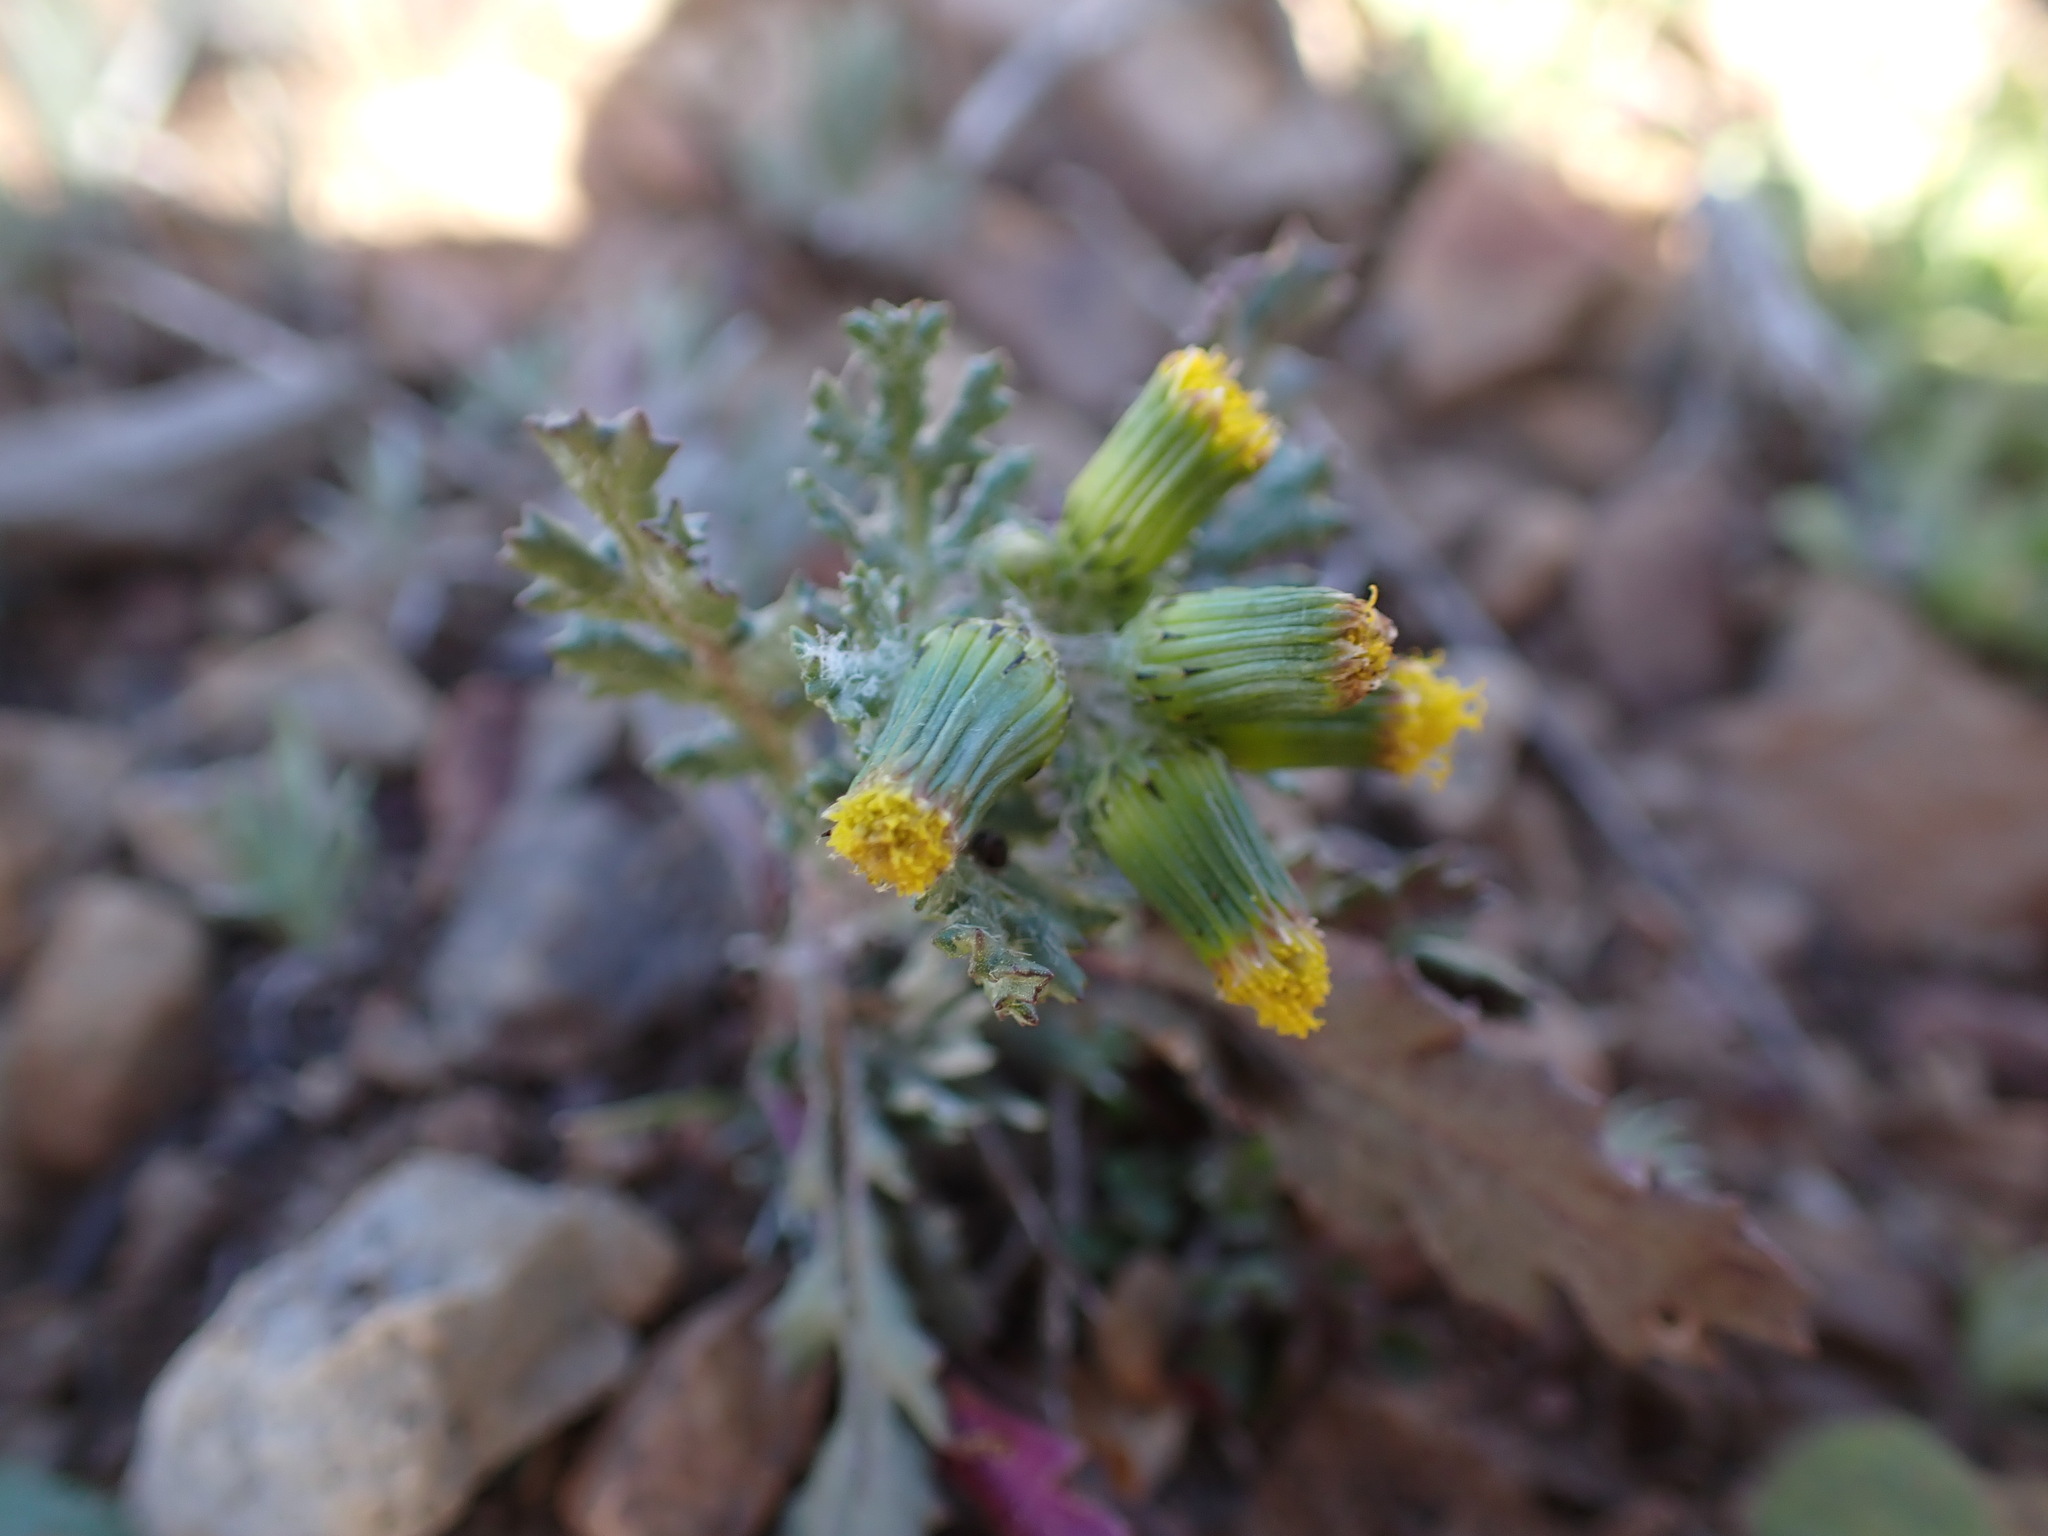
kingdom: Plantae
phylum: Tracheophyta
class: Magnoliopsida
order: Asterales
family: Asteraceae
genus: Senecio
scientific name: Senecio vulgaris
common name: Old-man-in-the-spring
